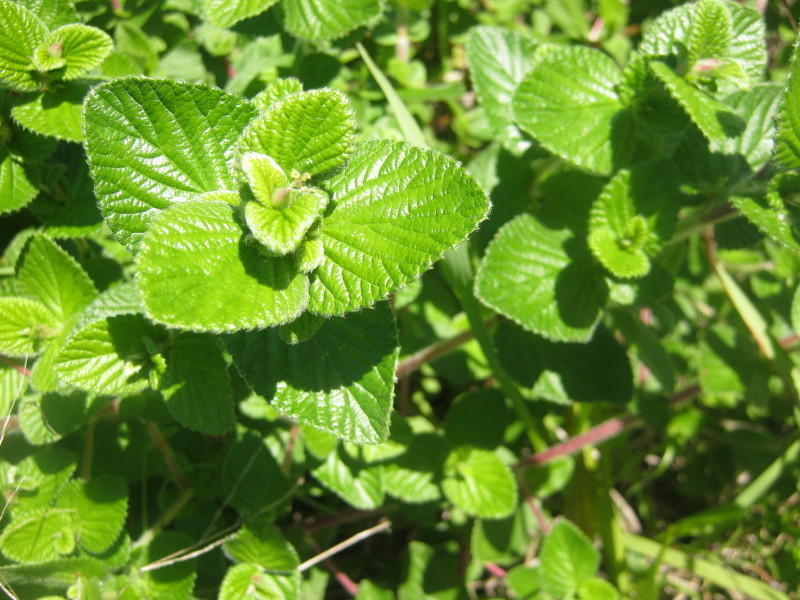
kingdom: Plantae
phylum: Tracheophyta
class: Magnoliopsida
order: Rosales
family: Rosaceae
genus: Cliffortia
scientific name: Cliffortia odorata
